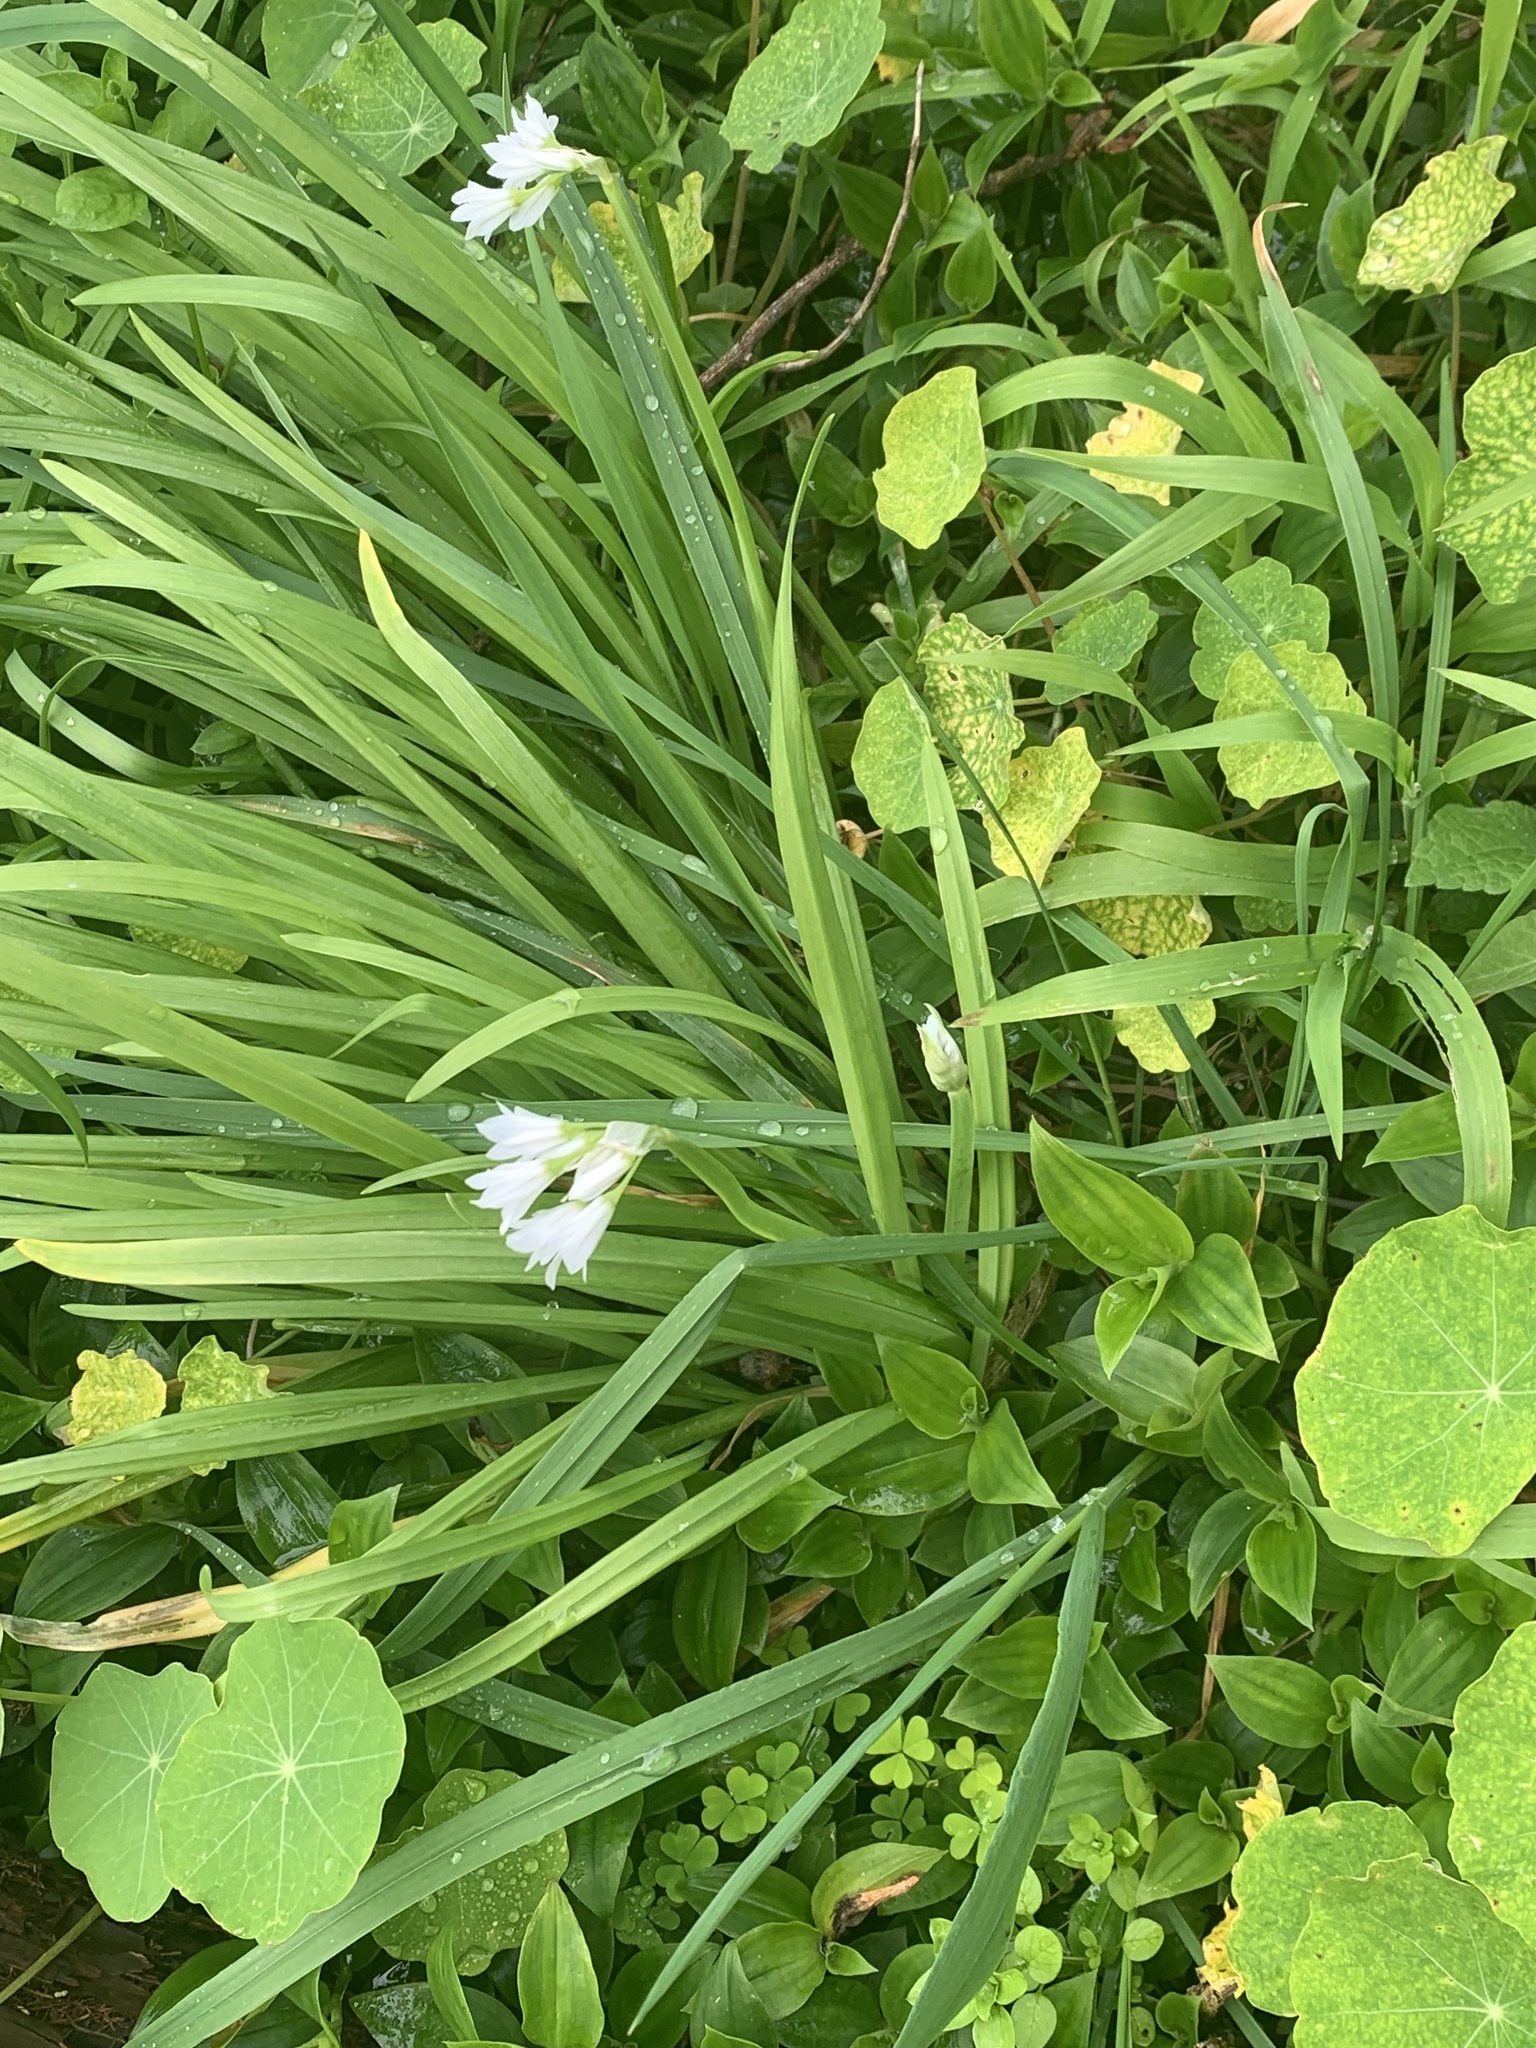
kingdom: Plantae
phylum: Tracheophyta
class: Liliopsida
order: Asparagales
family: Amaryllidaceae
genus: Allium
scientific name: Allium triquetrum
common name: Three-cornered garlic
